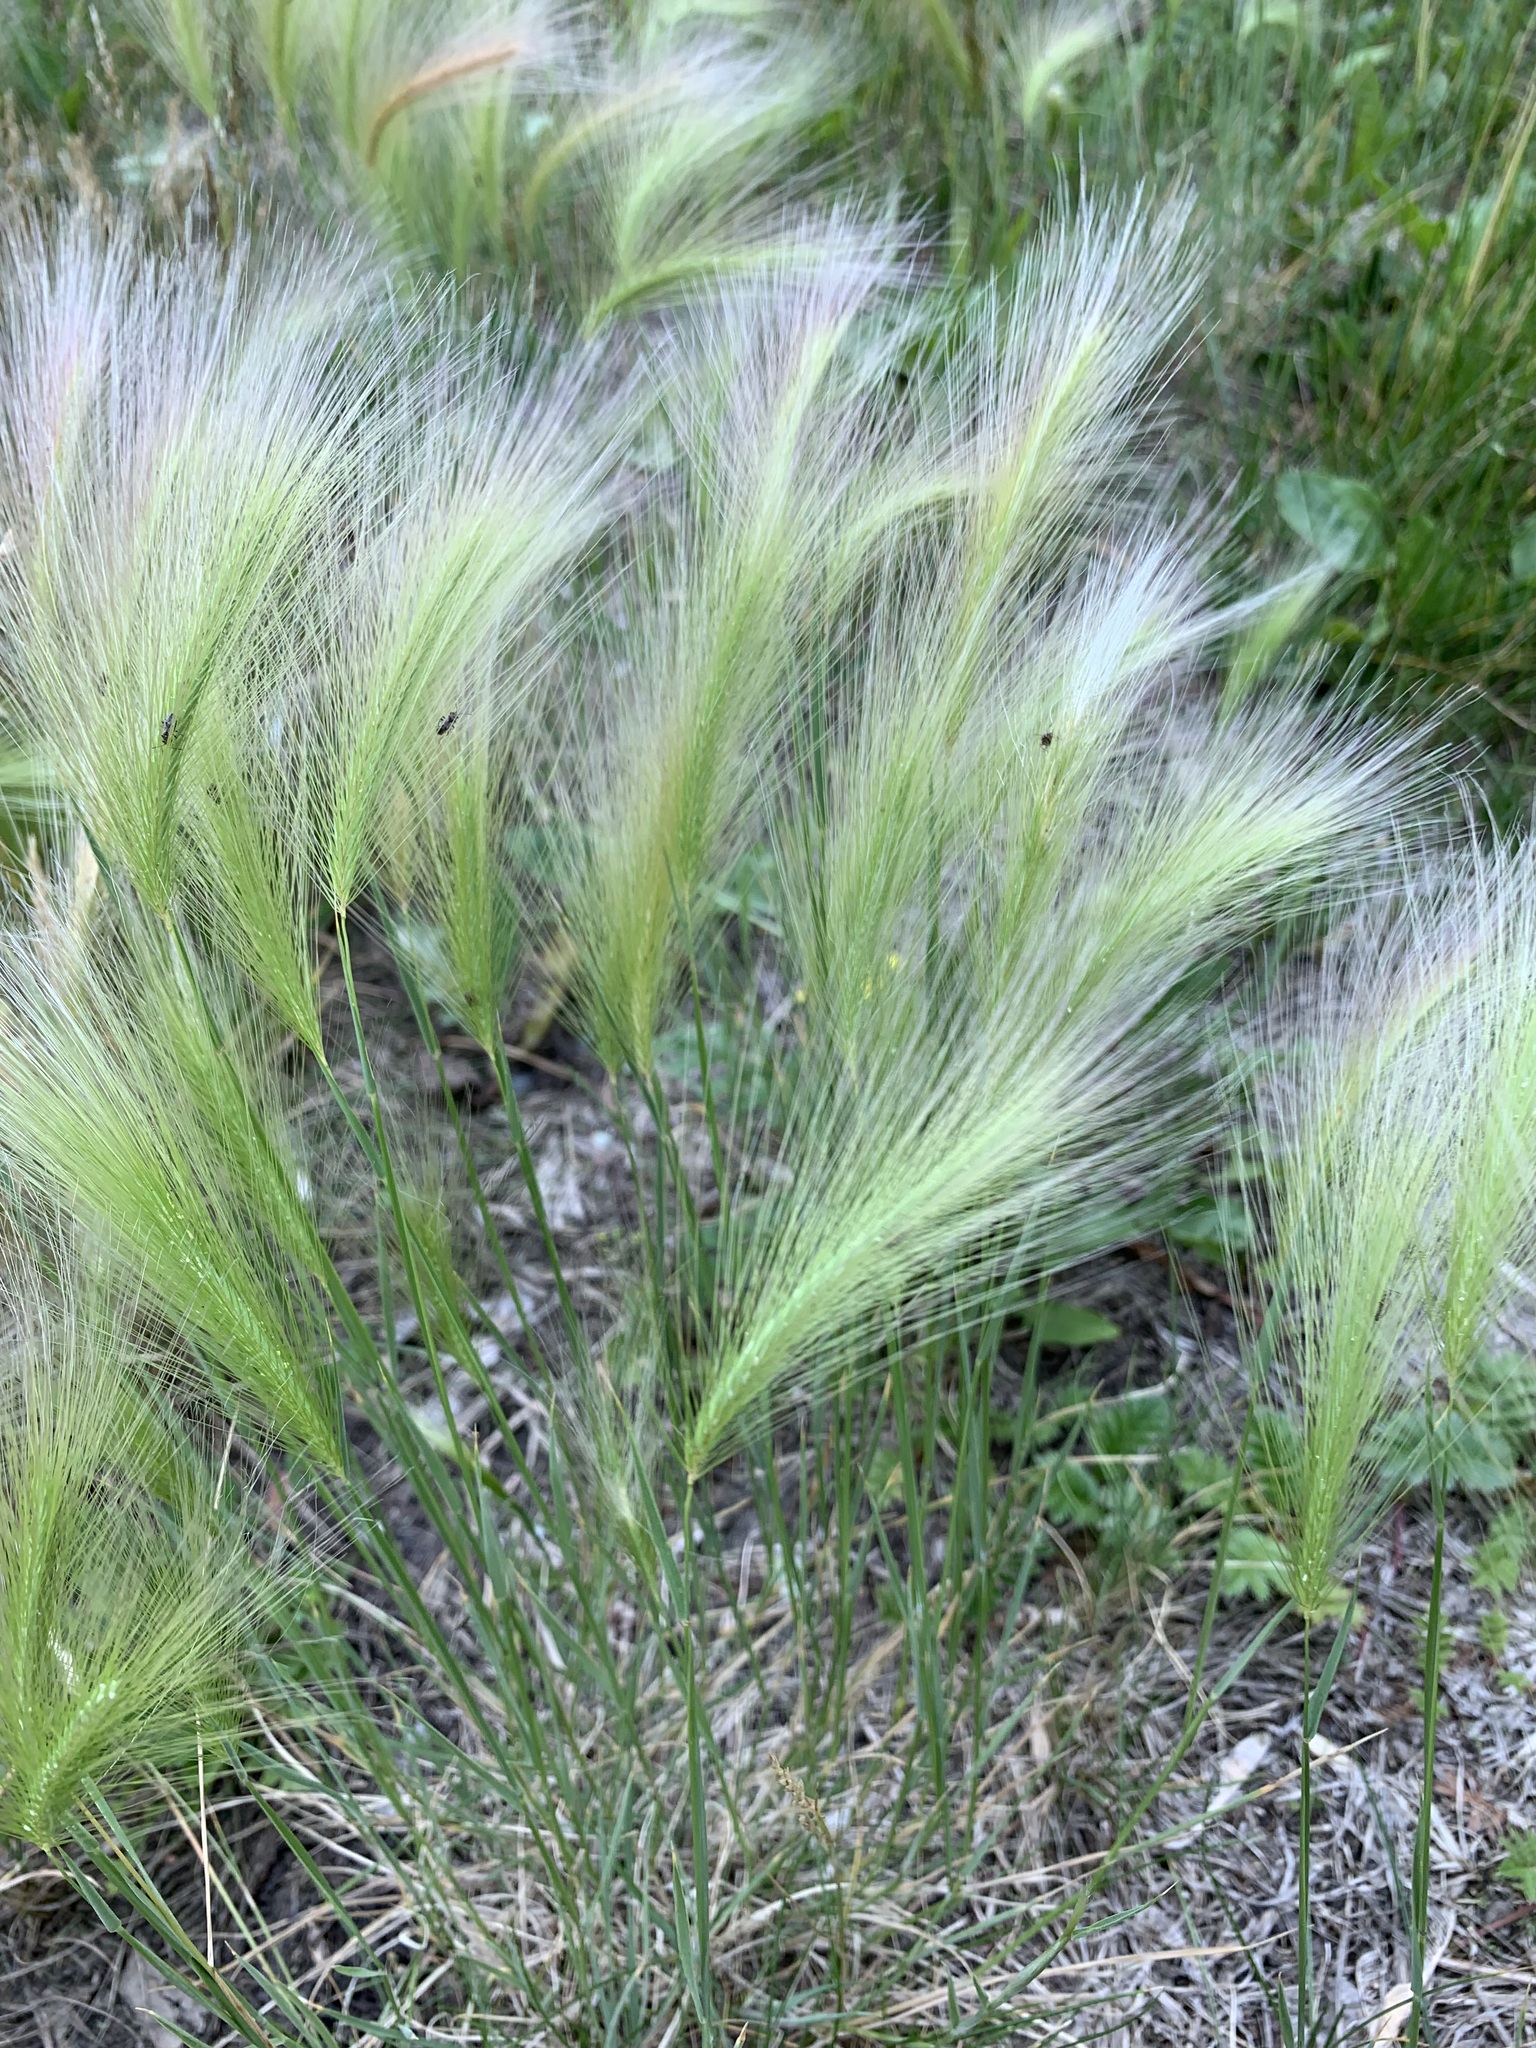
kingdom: Plantae
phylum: Tracheophyta
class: Liliopsida
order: Poales
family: Poaceae
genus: Hordeum
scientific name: Hordeum jubatum
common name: Foxtail barley
